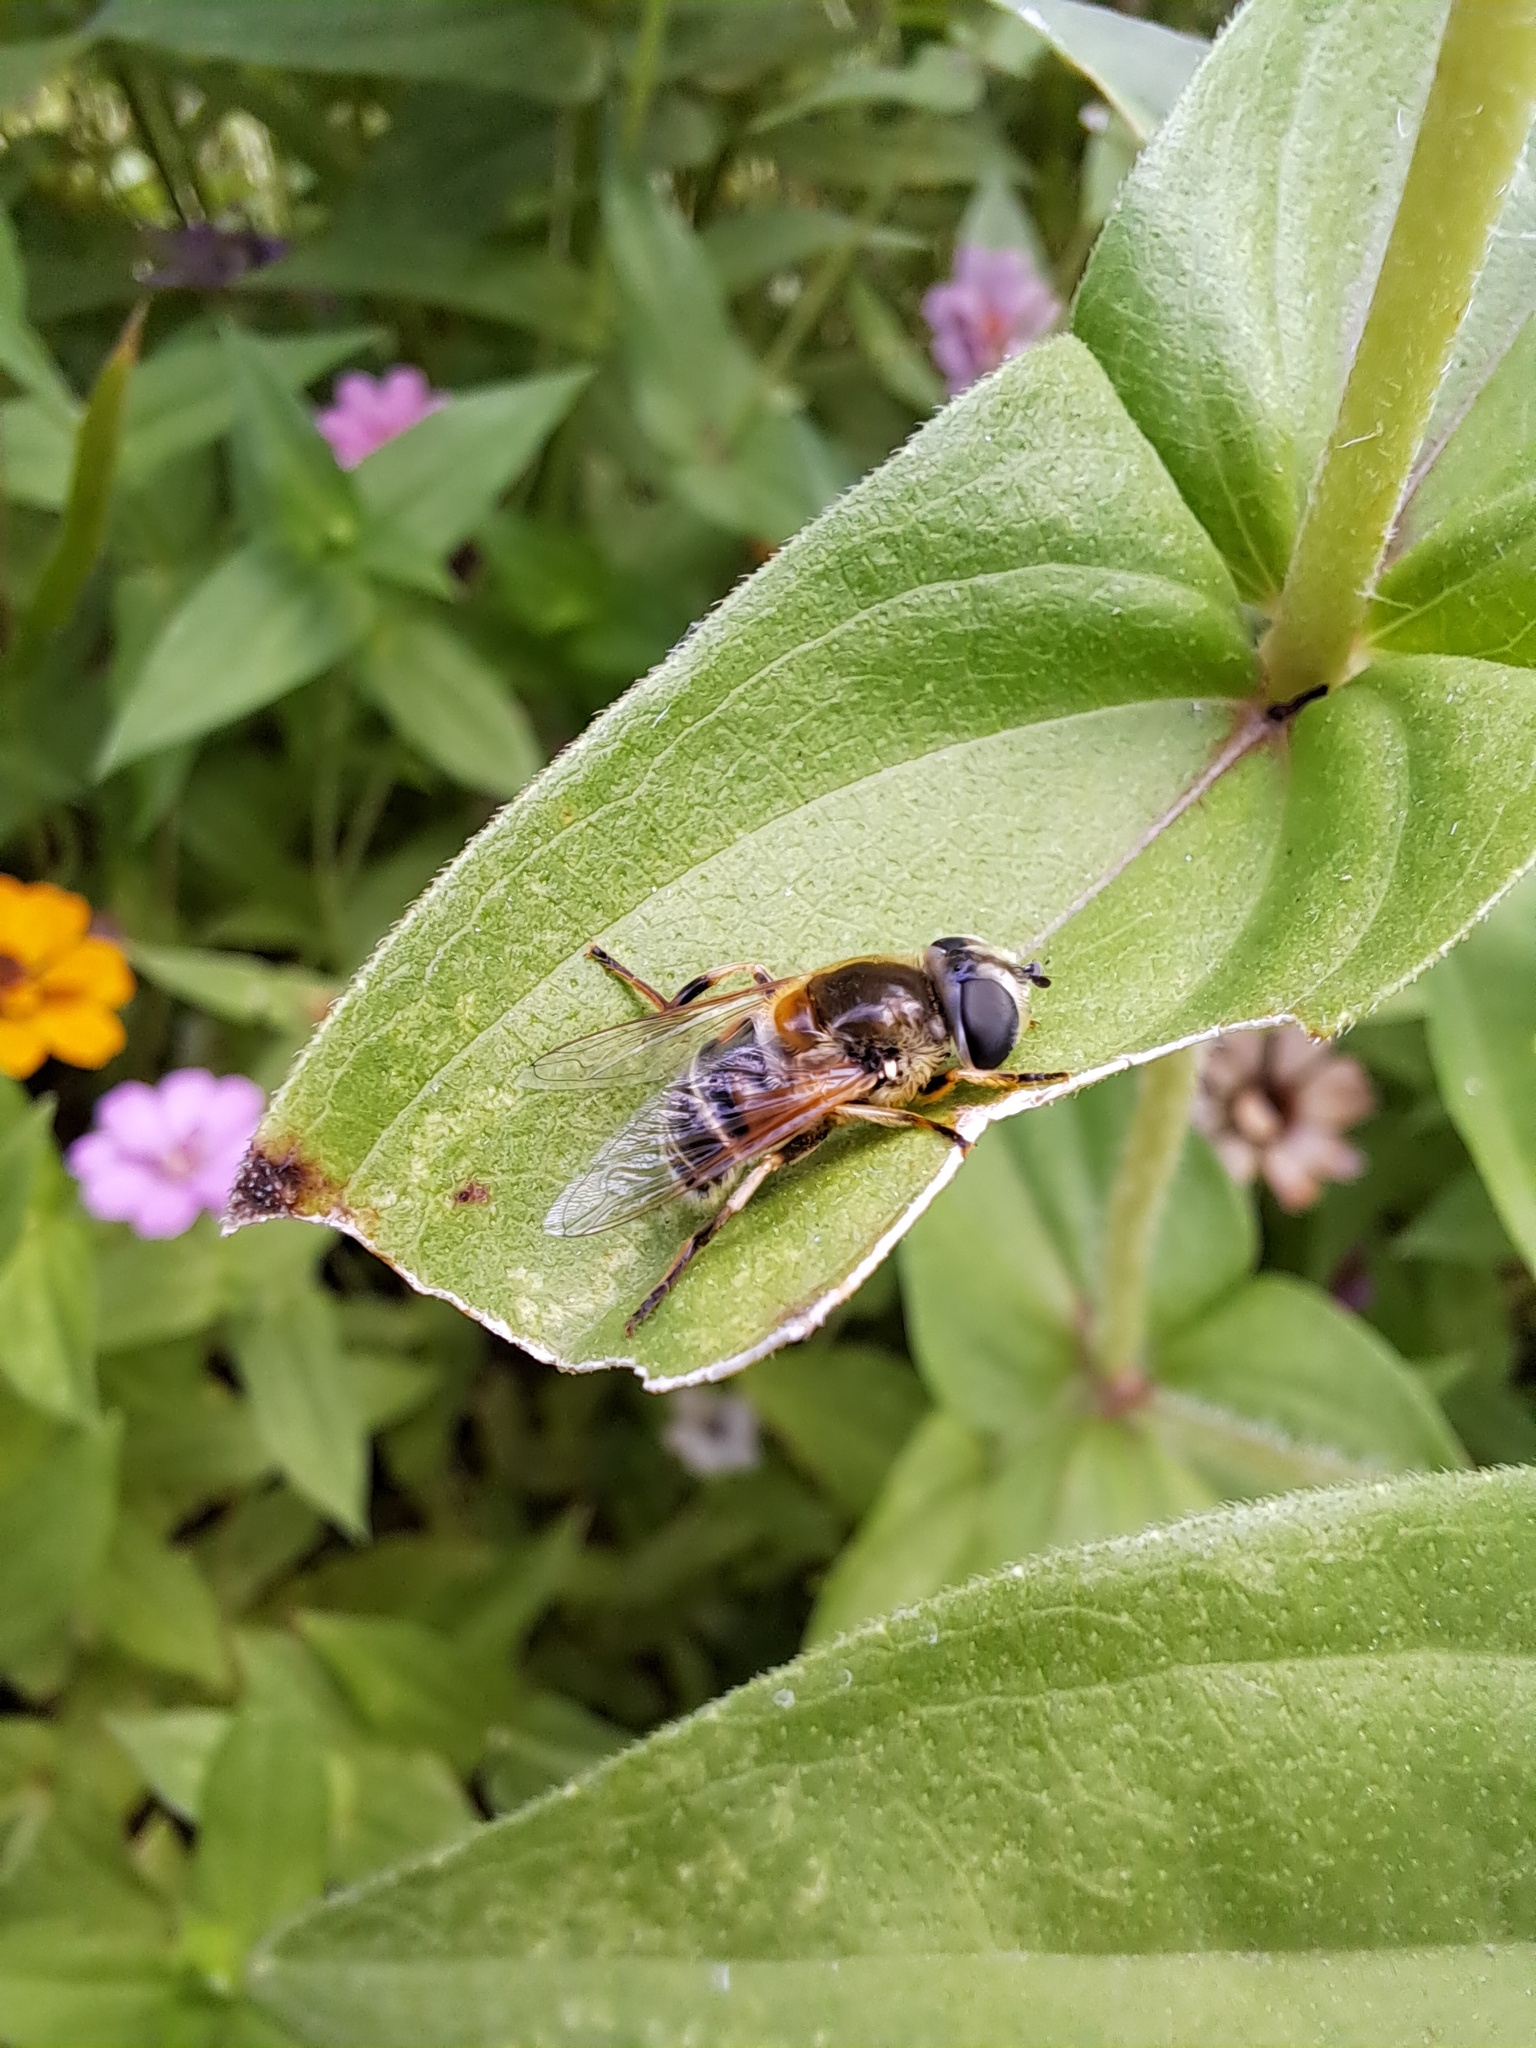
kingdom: Animalia
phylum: Arthropoda
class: Insecta
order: Diptera
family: Syrphidae
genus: Eristalis
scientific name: Eristalis stipator
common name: Yellow-shouldered drone fly
